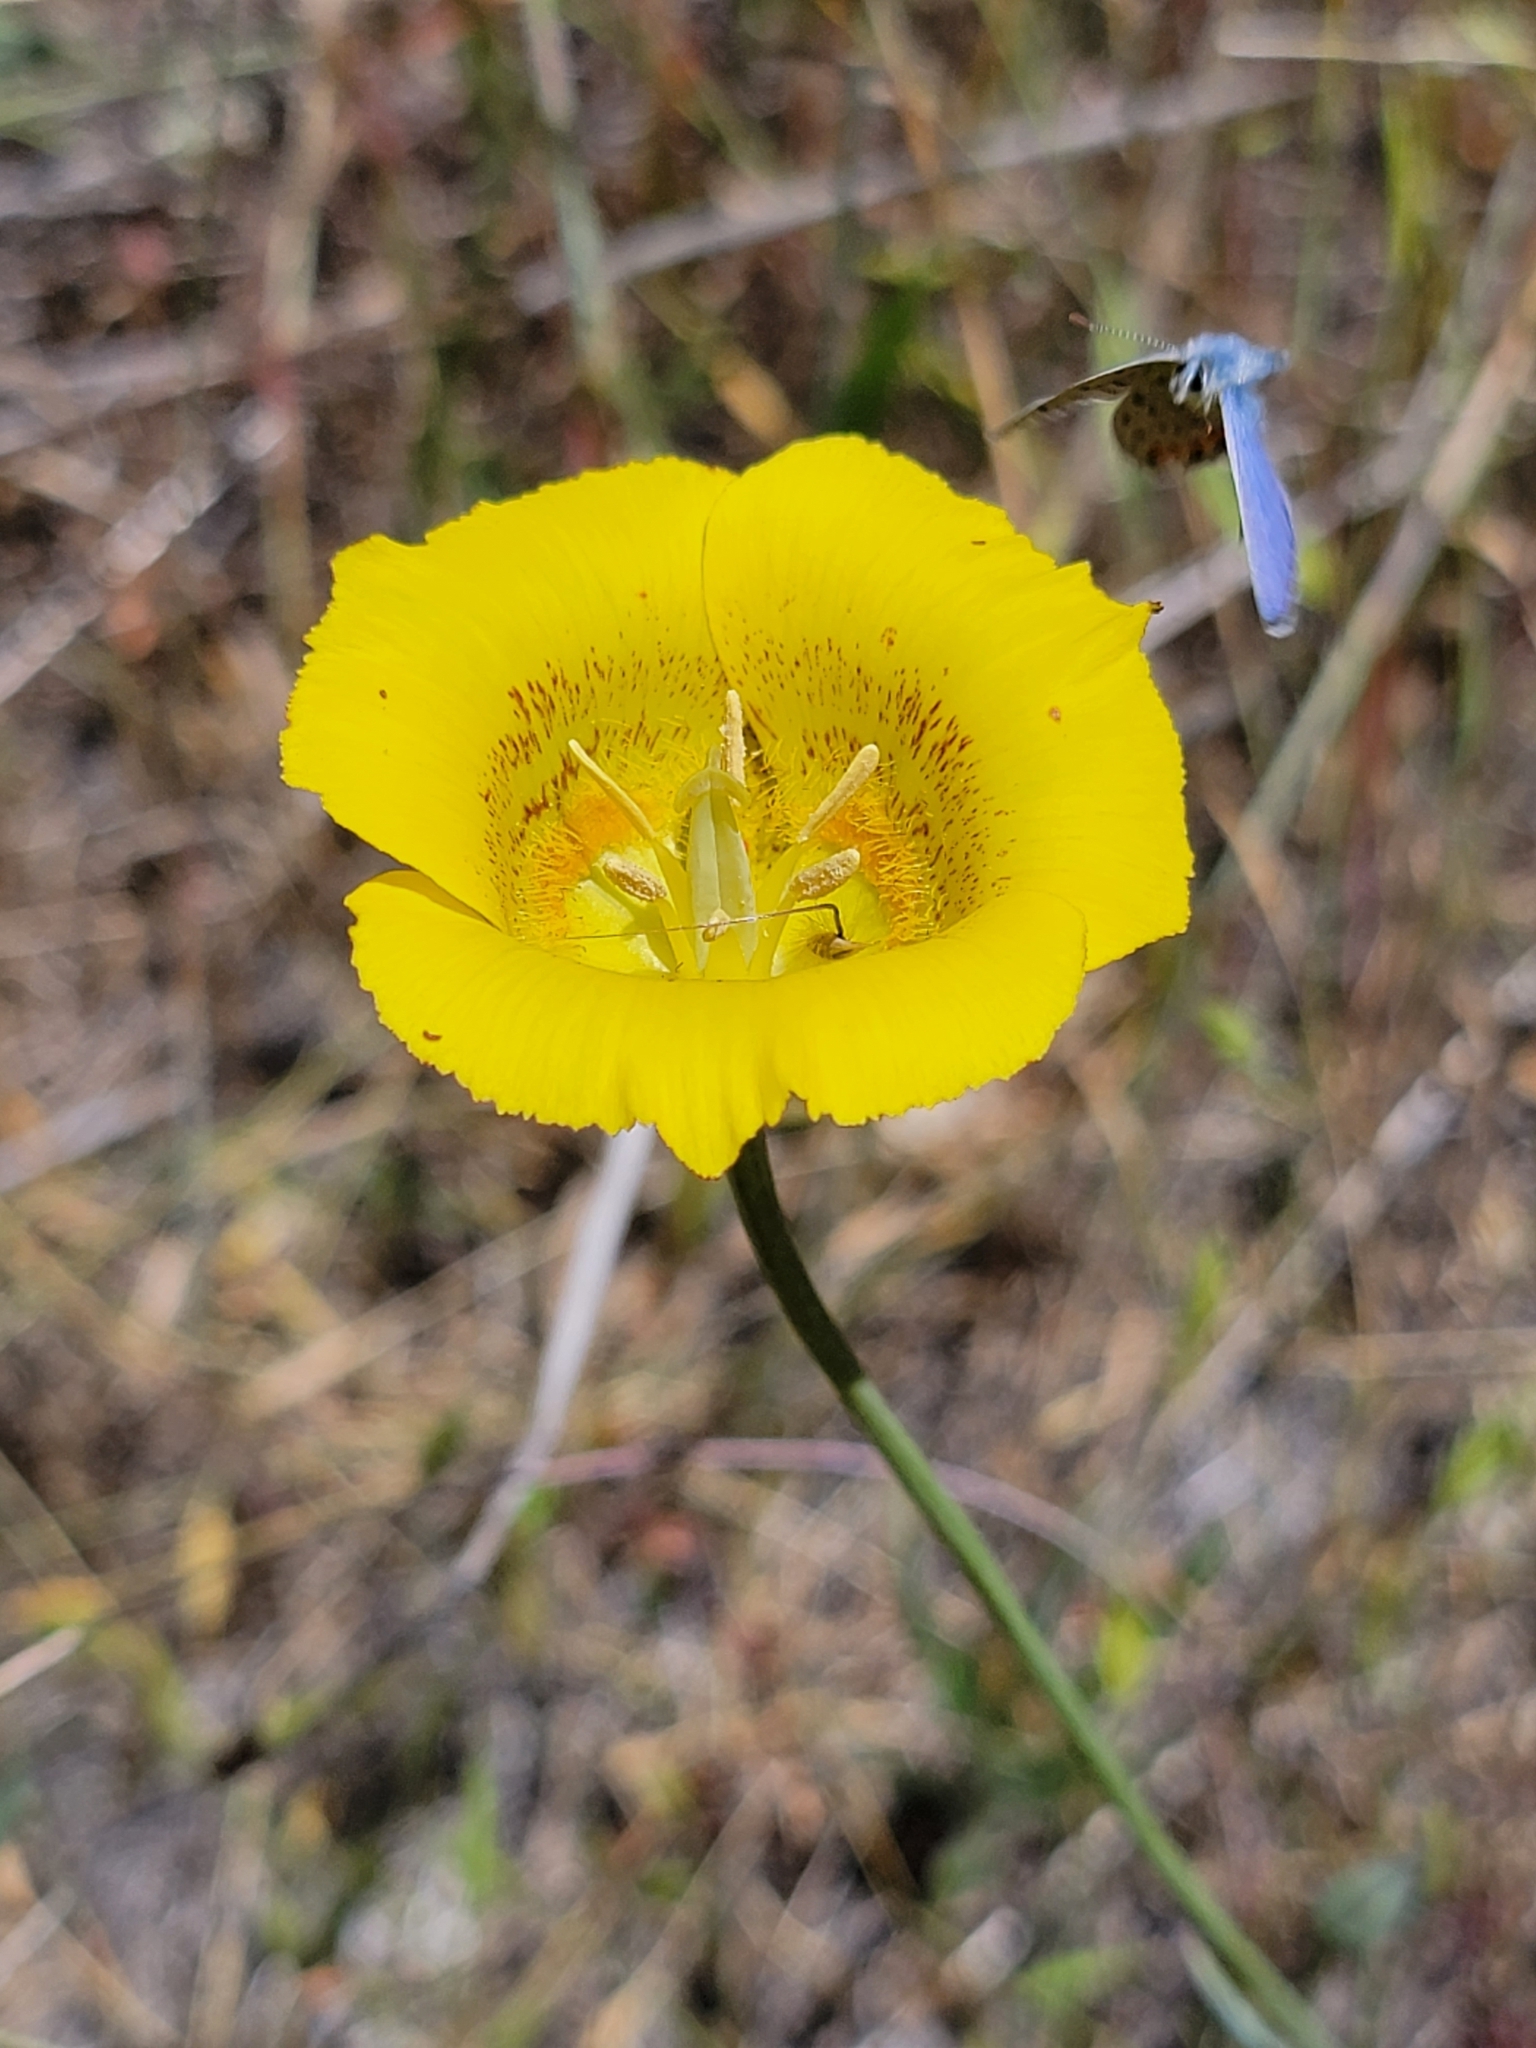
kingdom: Plantae
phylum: Tracheophyta
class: Liliopsida
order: Liliales
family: Liliaceae
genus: Calochortus
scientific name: Calochortus luteus
